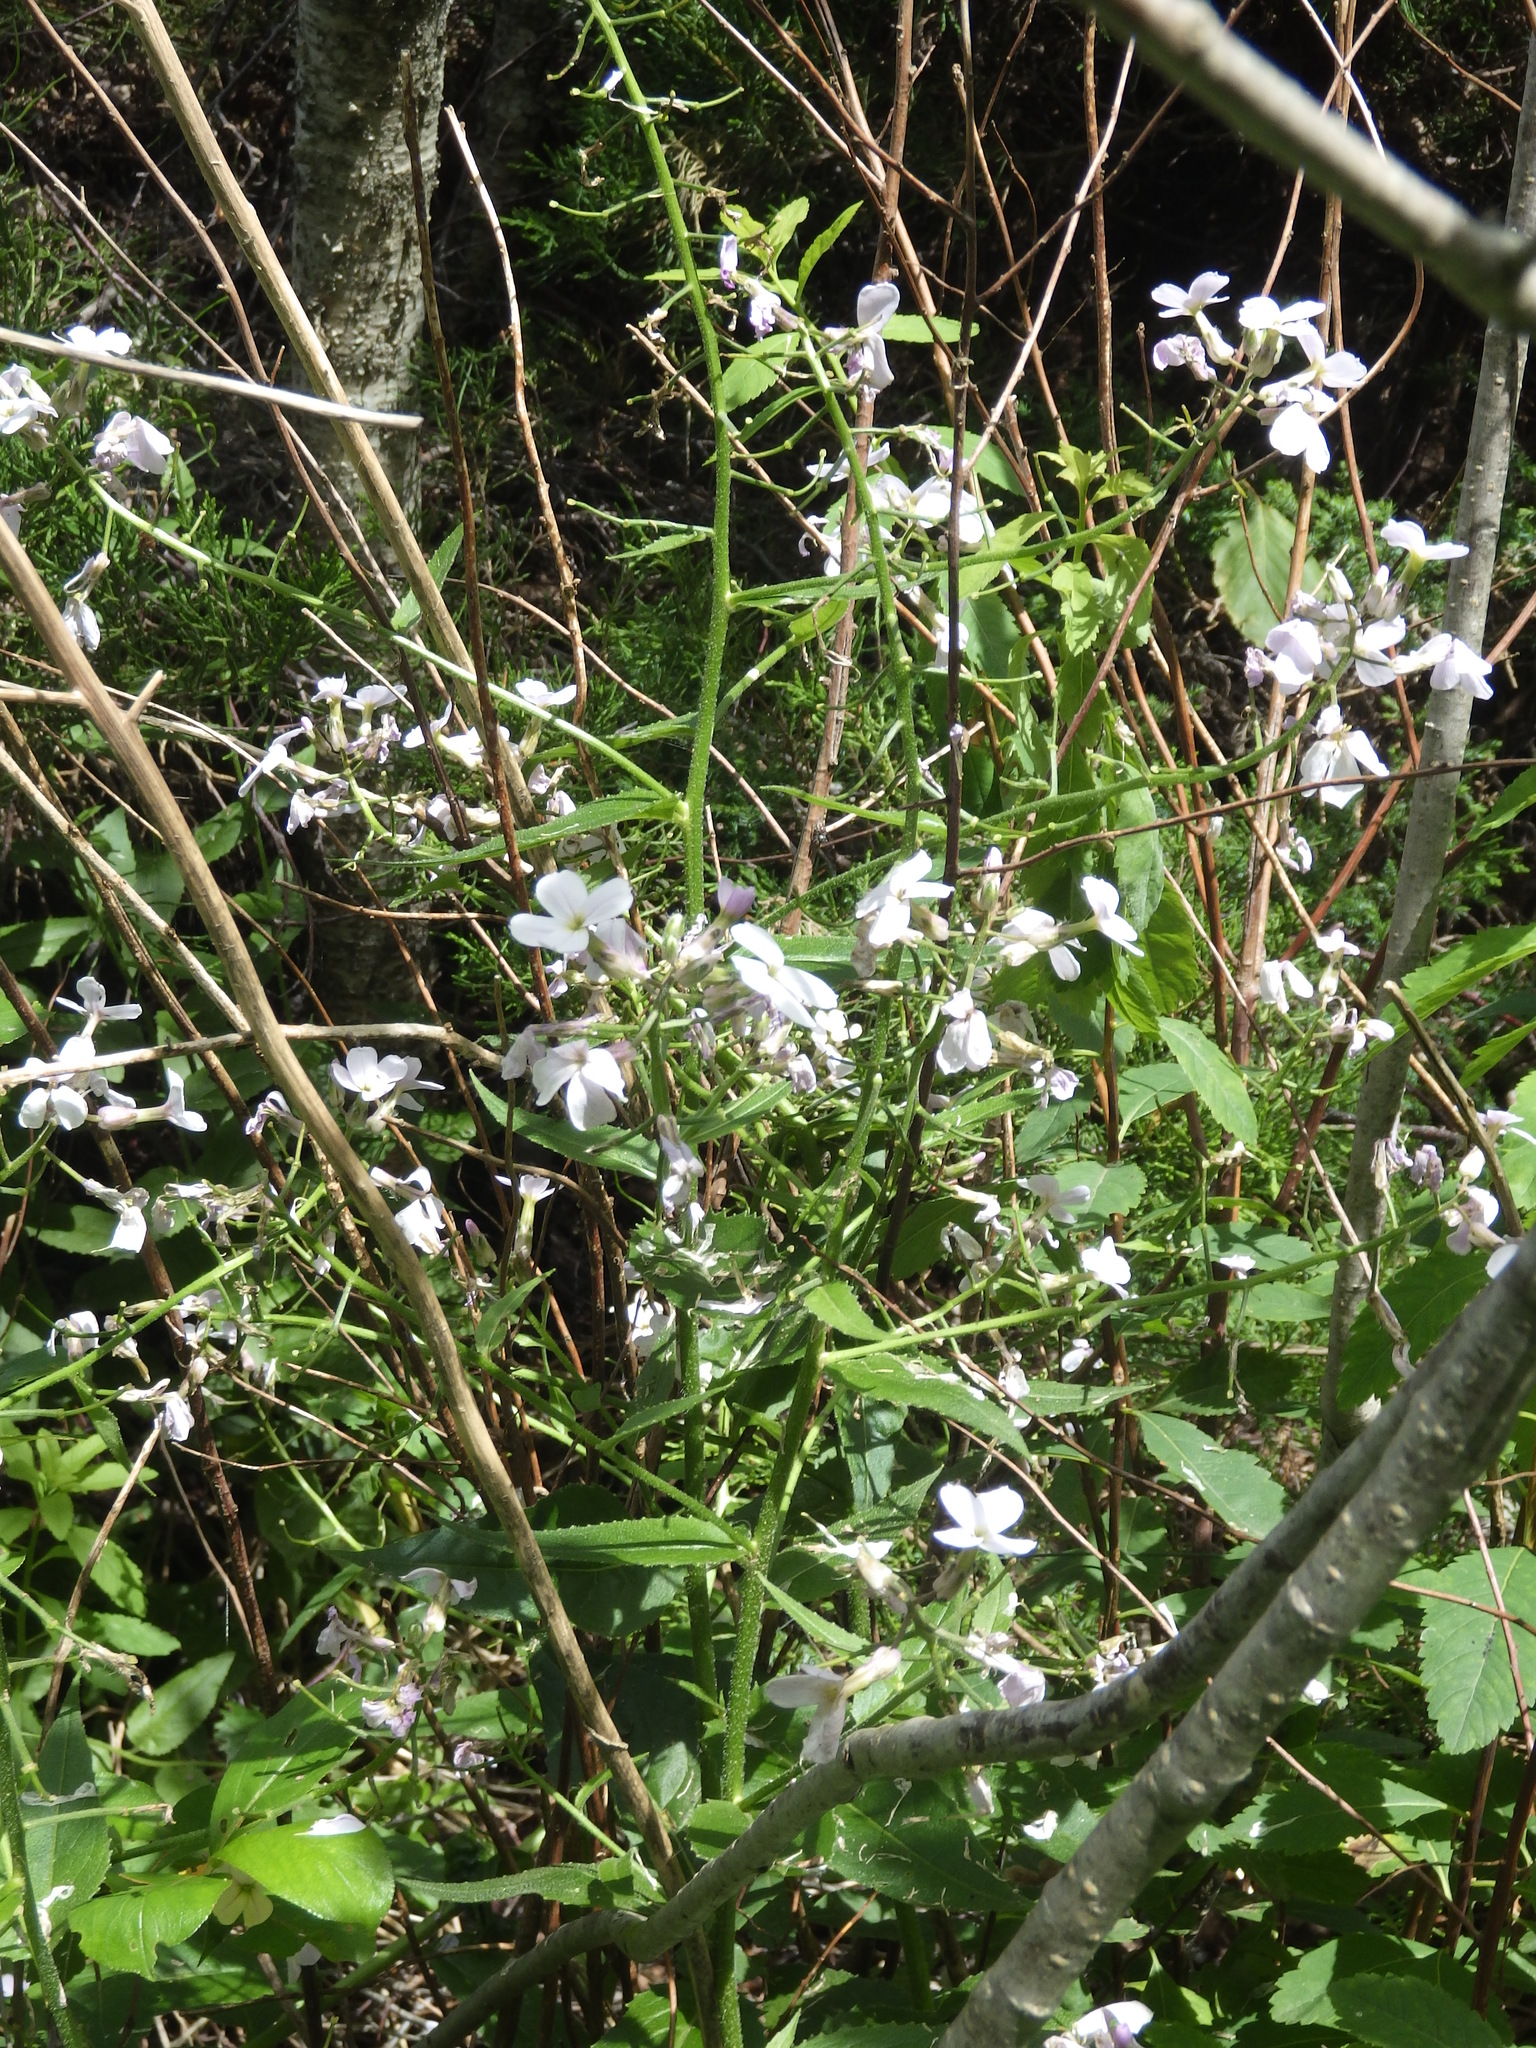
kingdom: Plantae
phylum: Tracheophyta
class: Magnoliopsida
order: Brassicales
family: Brassicaceae
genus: Hesperis
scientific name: Hesperis matronalis
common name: Dame's-violet
